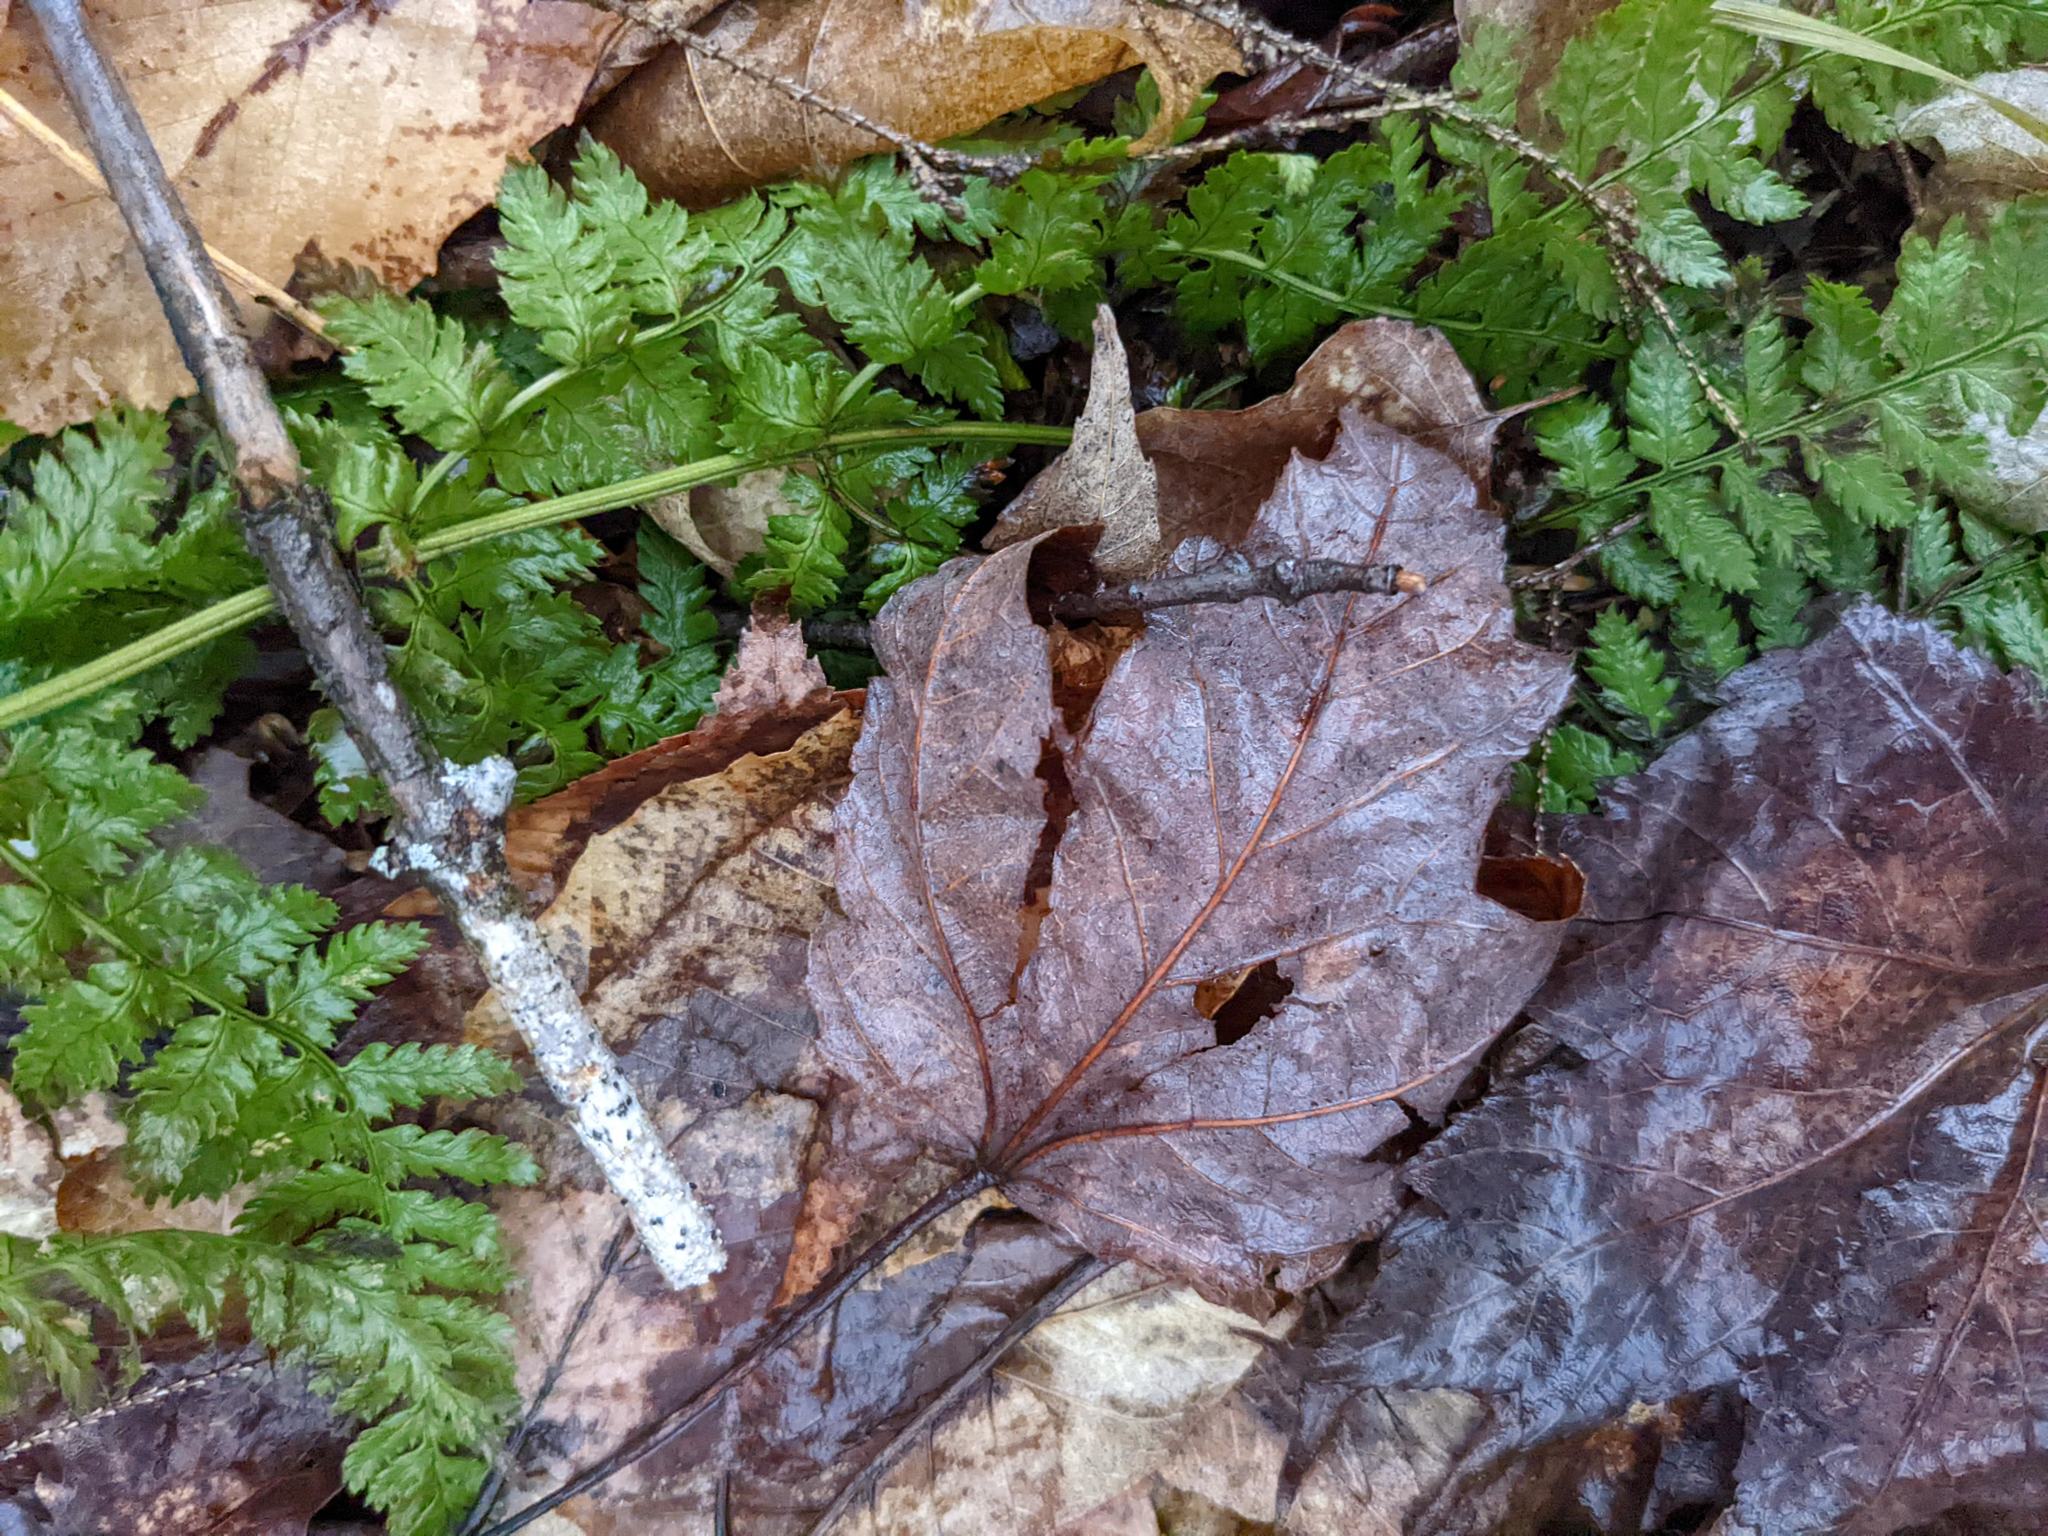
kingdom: Plantae
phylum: Tracheophyta
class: Polypodiopsida
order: Polypodiales
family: Dryopteridaceae
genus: Dryopteris
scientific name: Dryopteris intermedia
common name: Evergreen wood fern
